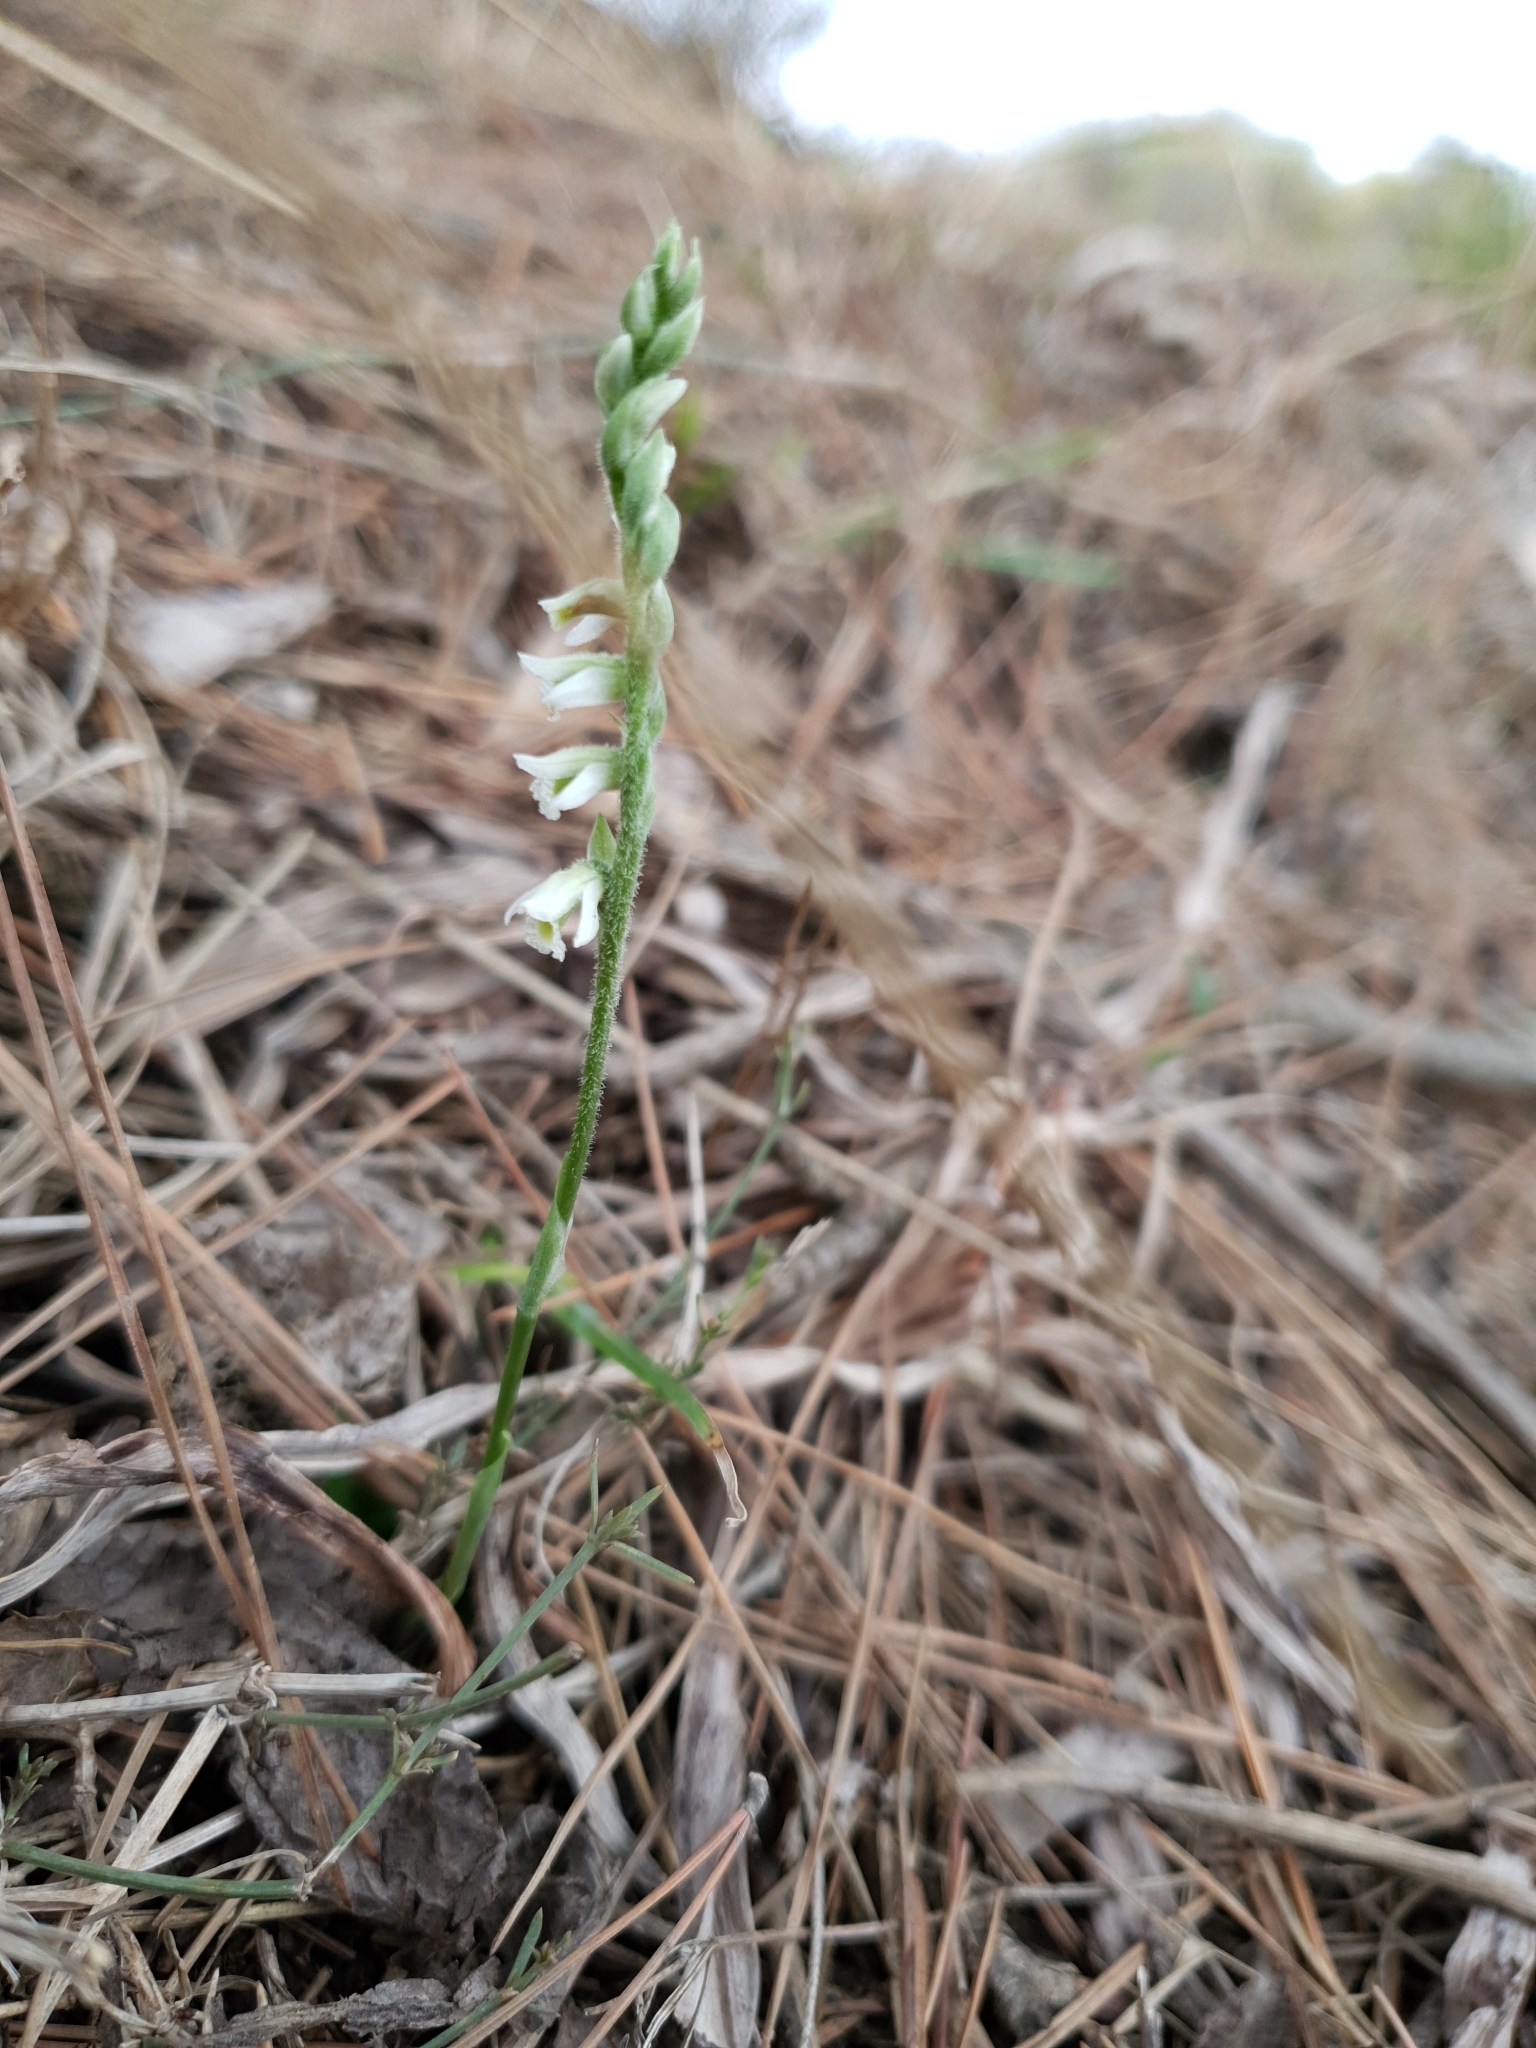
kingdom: Plantae
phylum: Tracheophyta
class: Liliopsida
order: Asparagales
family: Orchidaceae
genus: Spiranthes
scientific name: Spiranthes spiralis
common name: Autumn lady's-tresses
